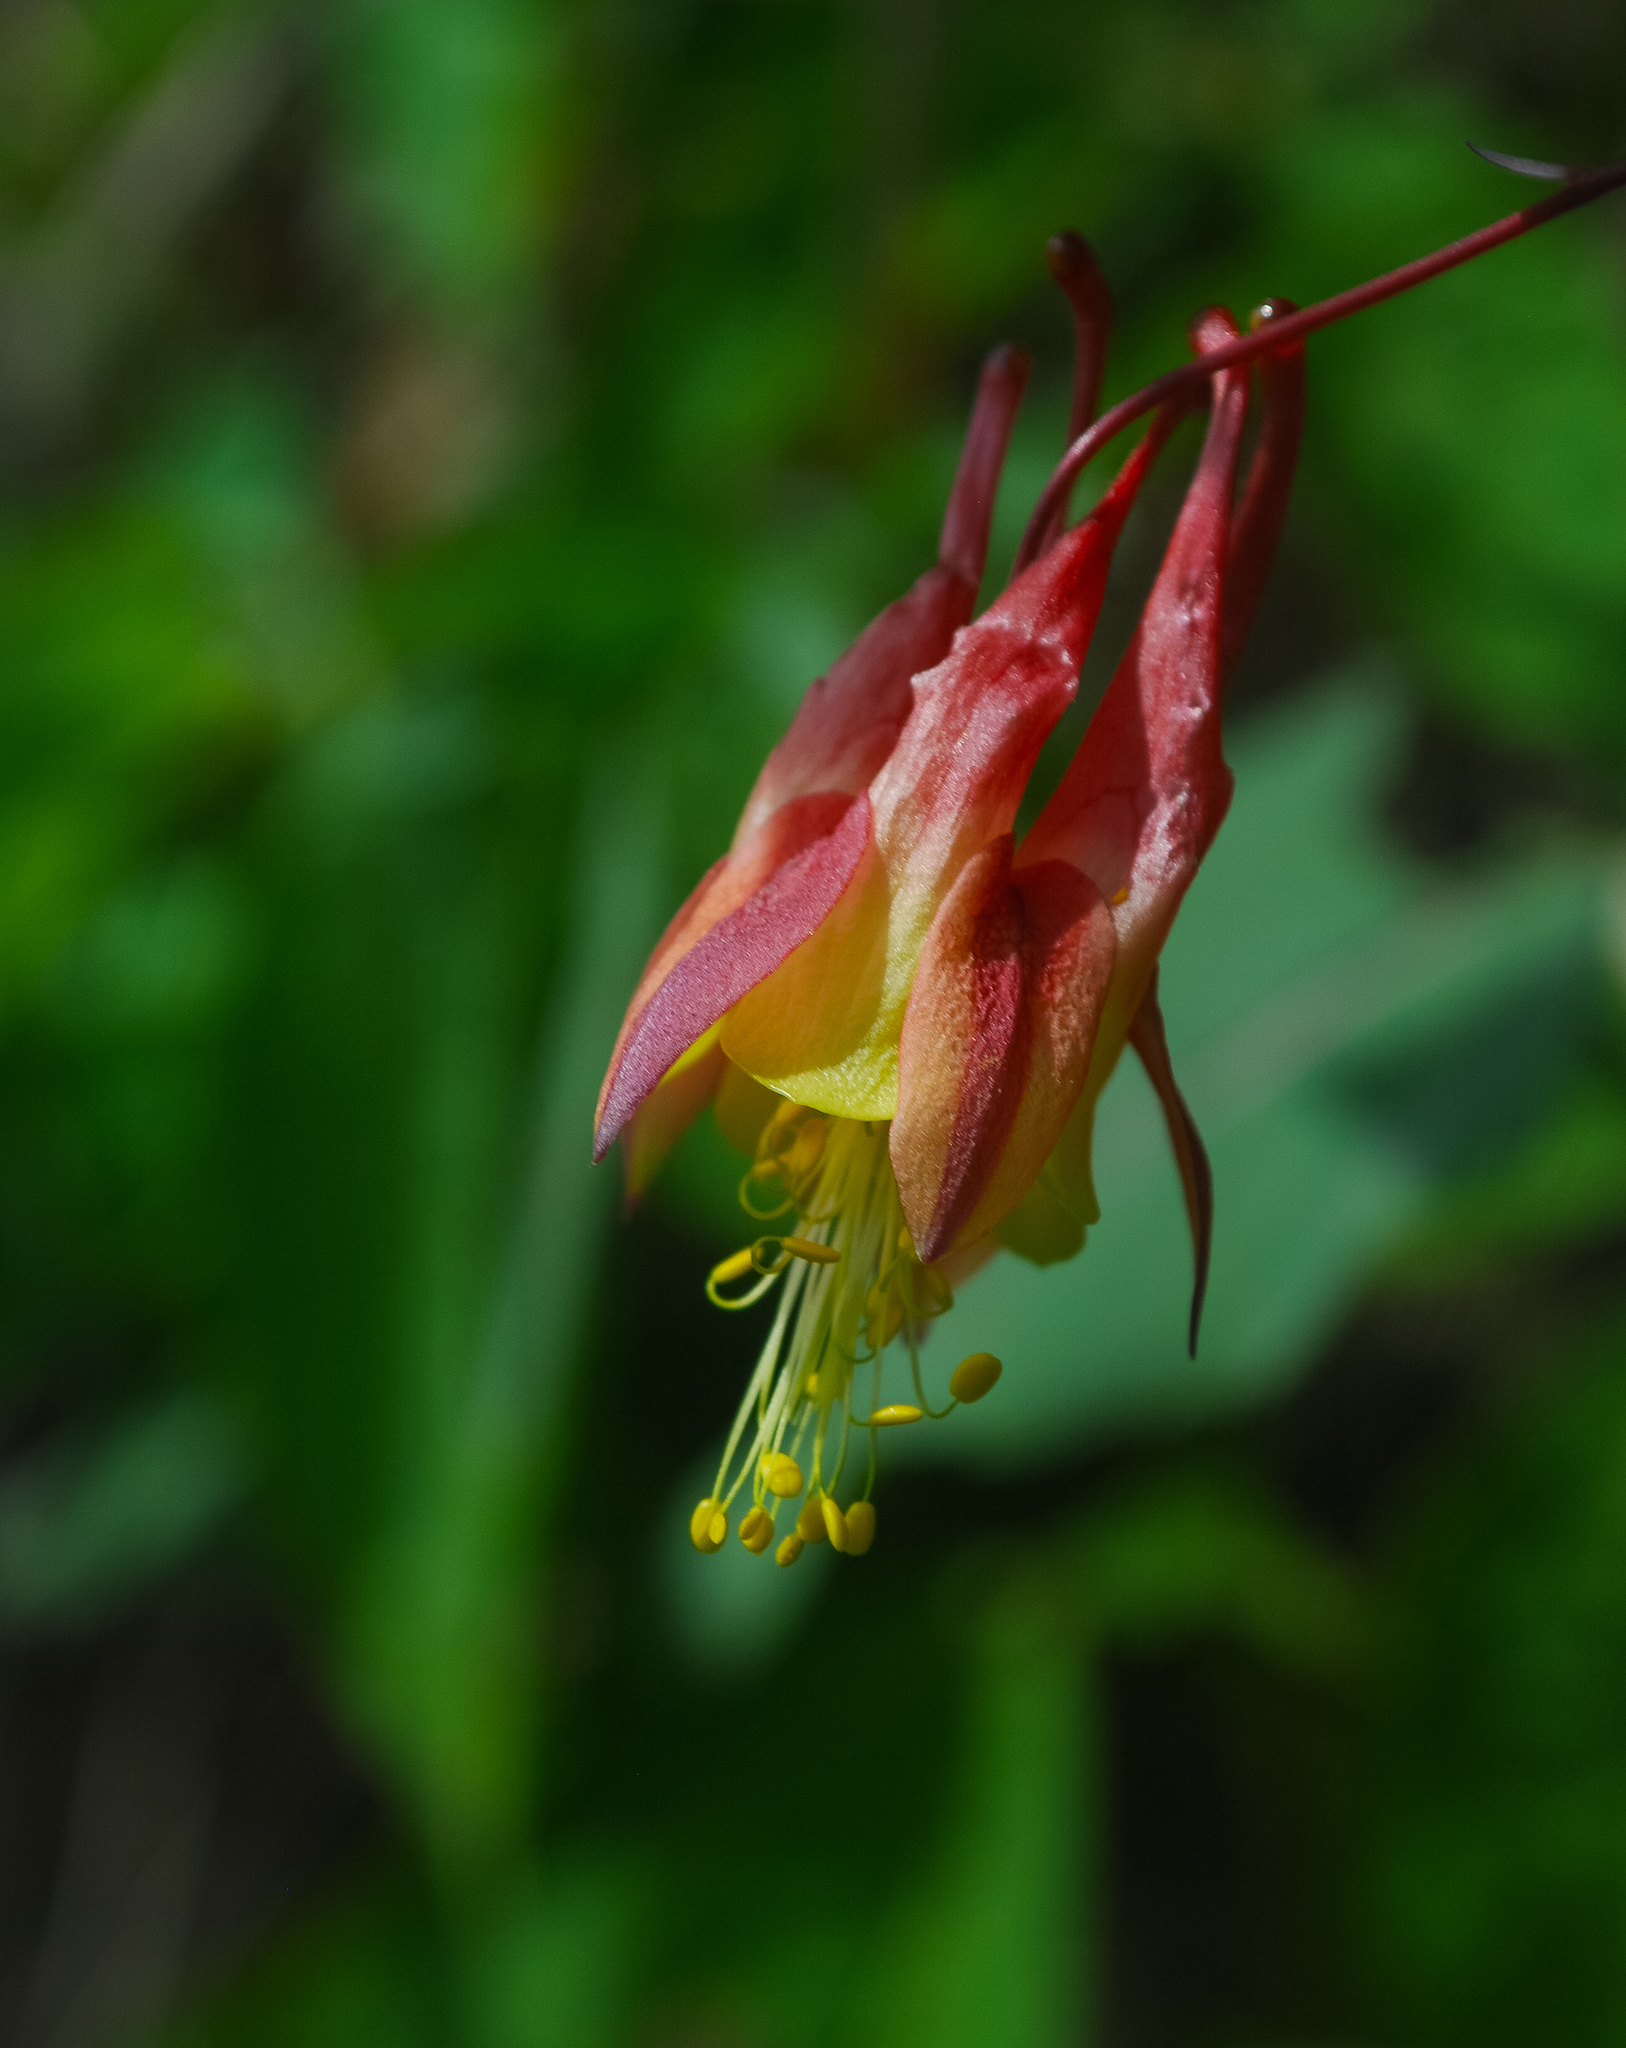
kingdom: Plantae
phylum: Tracheophyta
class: Magnoliopsida
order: Ranunculales
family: Ranunculaceae
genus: Aquilegia
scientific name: Aquilegia canadensis
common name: American columbine
